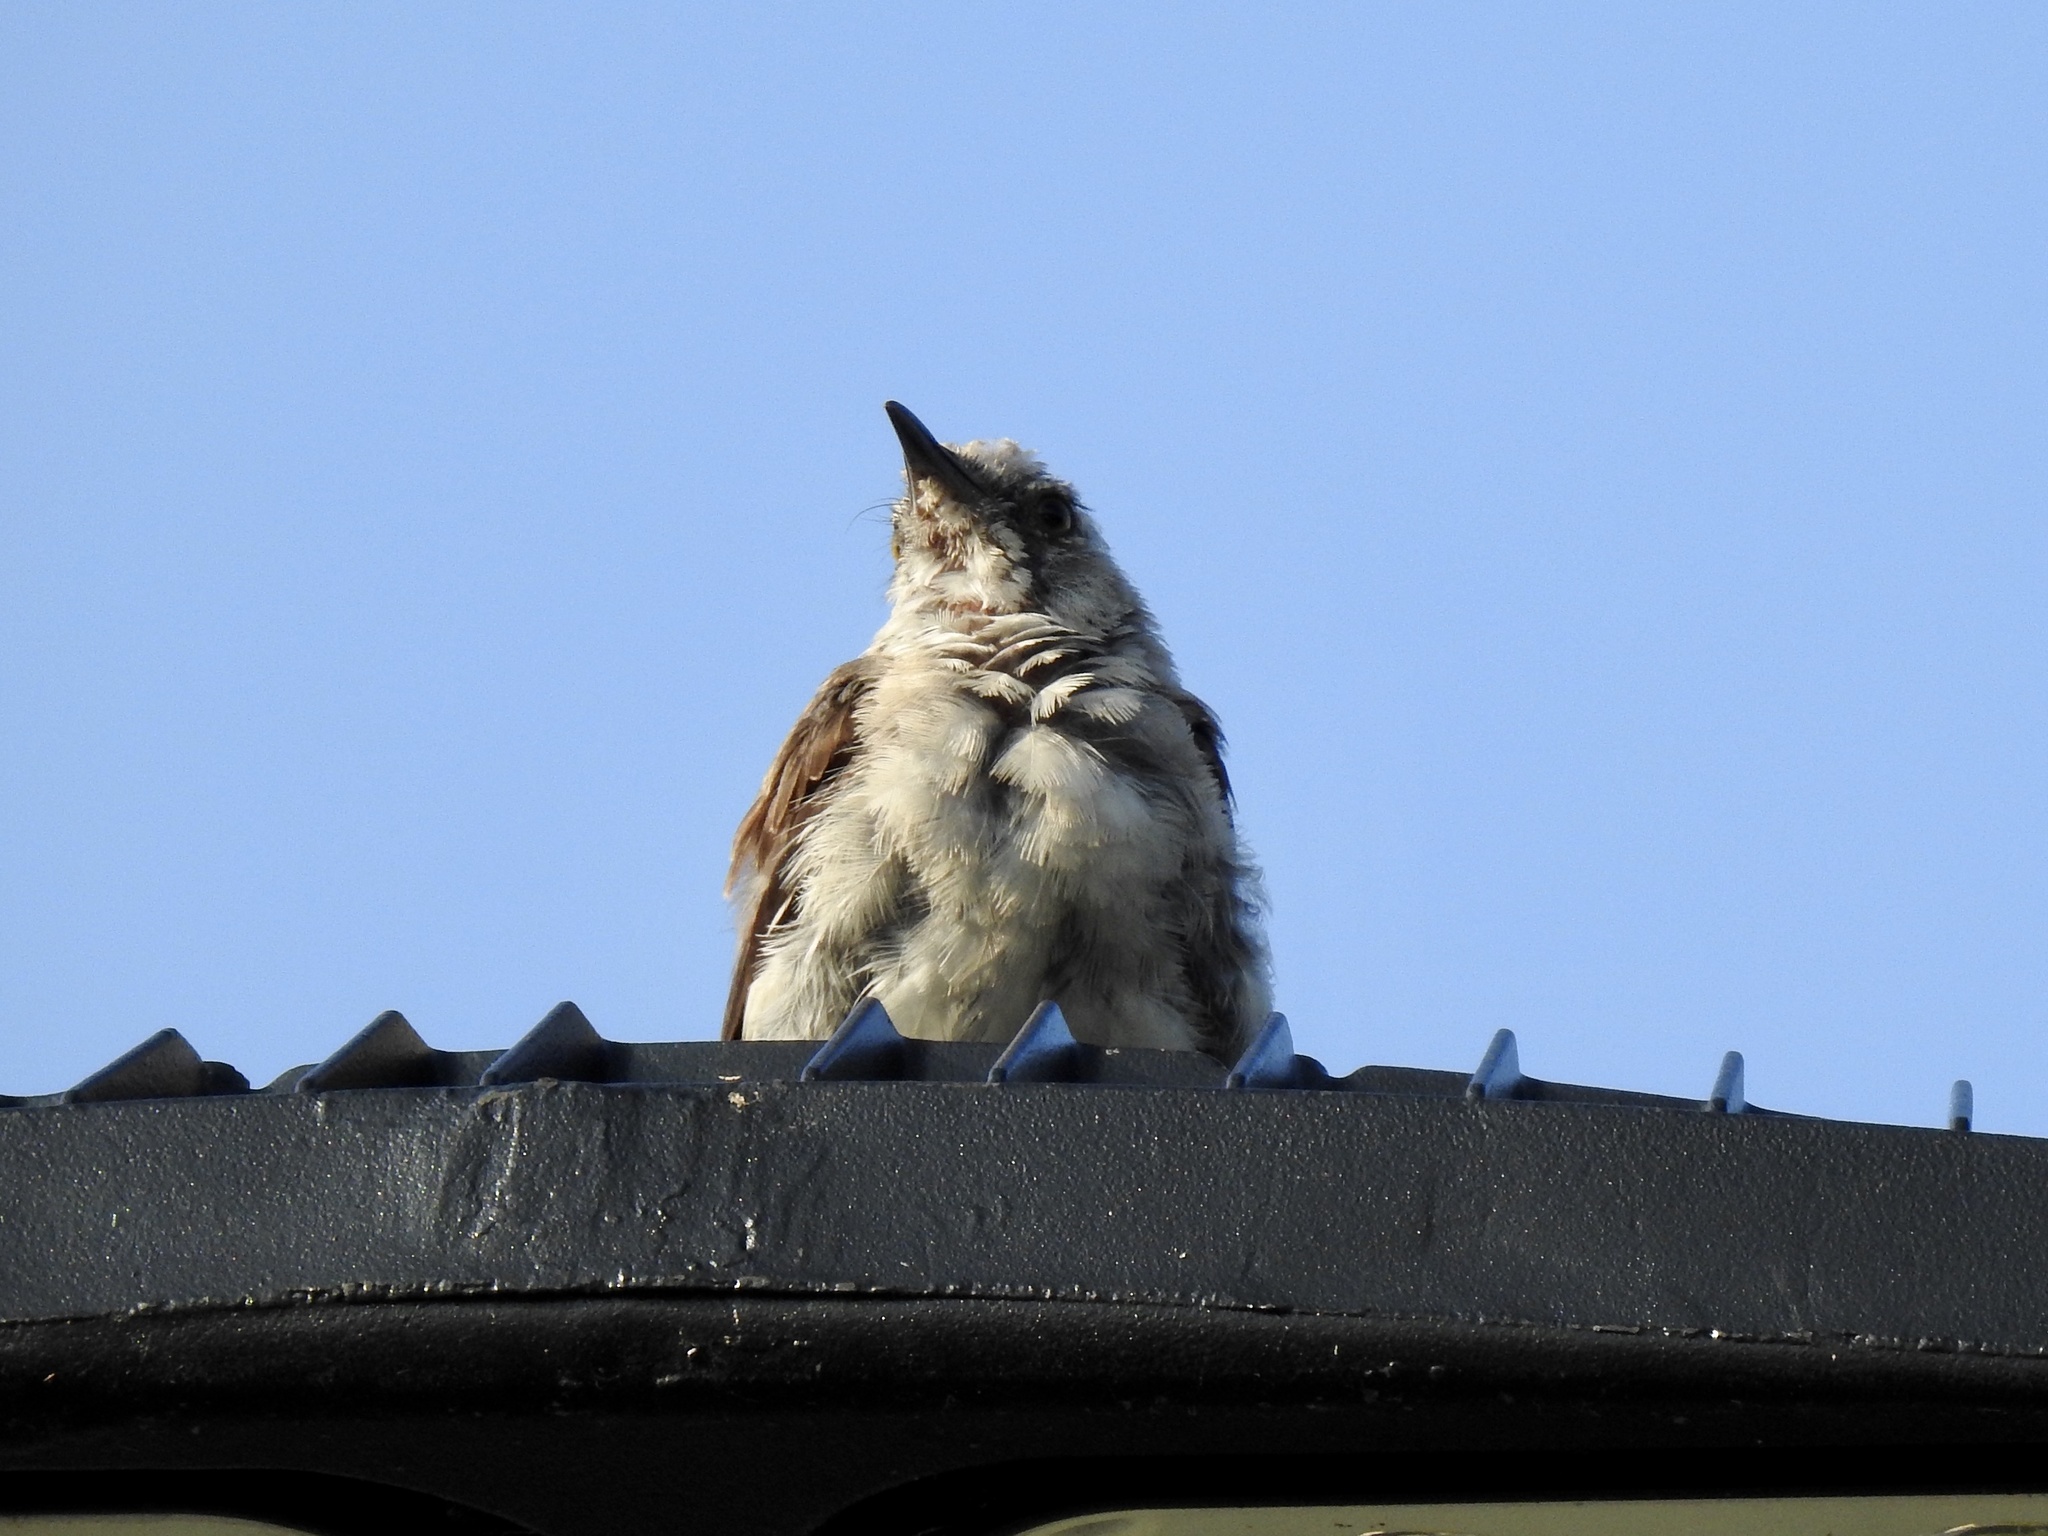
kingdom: Animalia
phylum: Chordata
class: Aves
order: Passeriformes
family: Mimidae
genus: Mimus
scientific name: Mimus polyglottos
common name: Northern mockingbird
